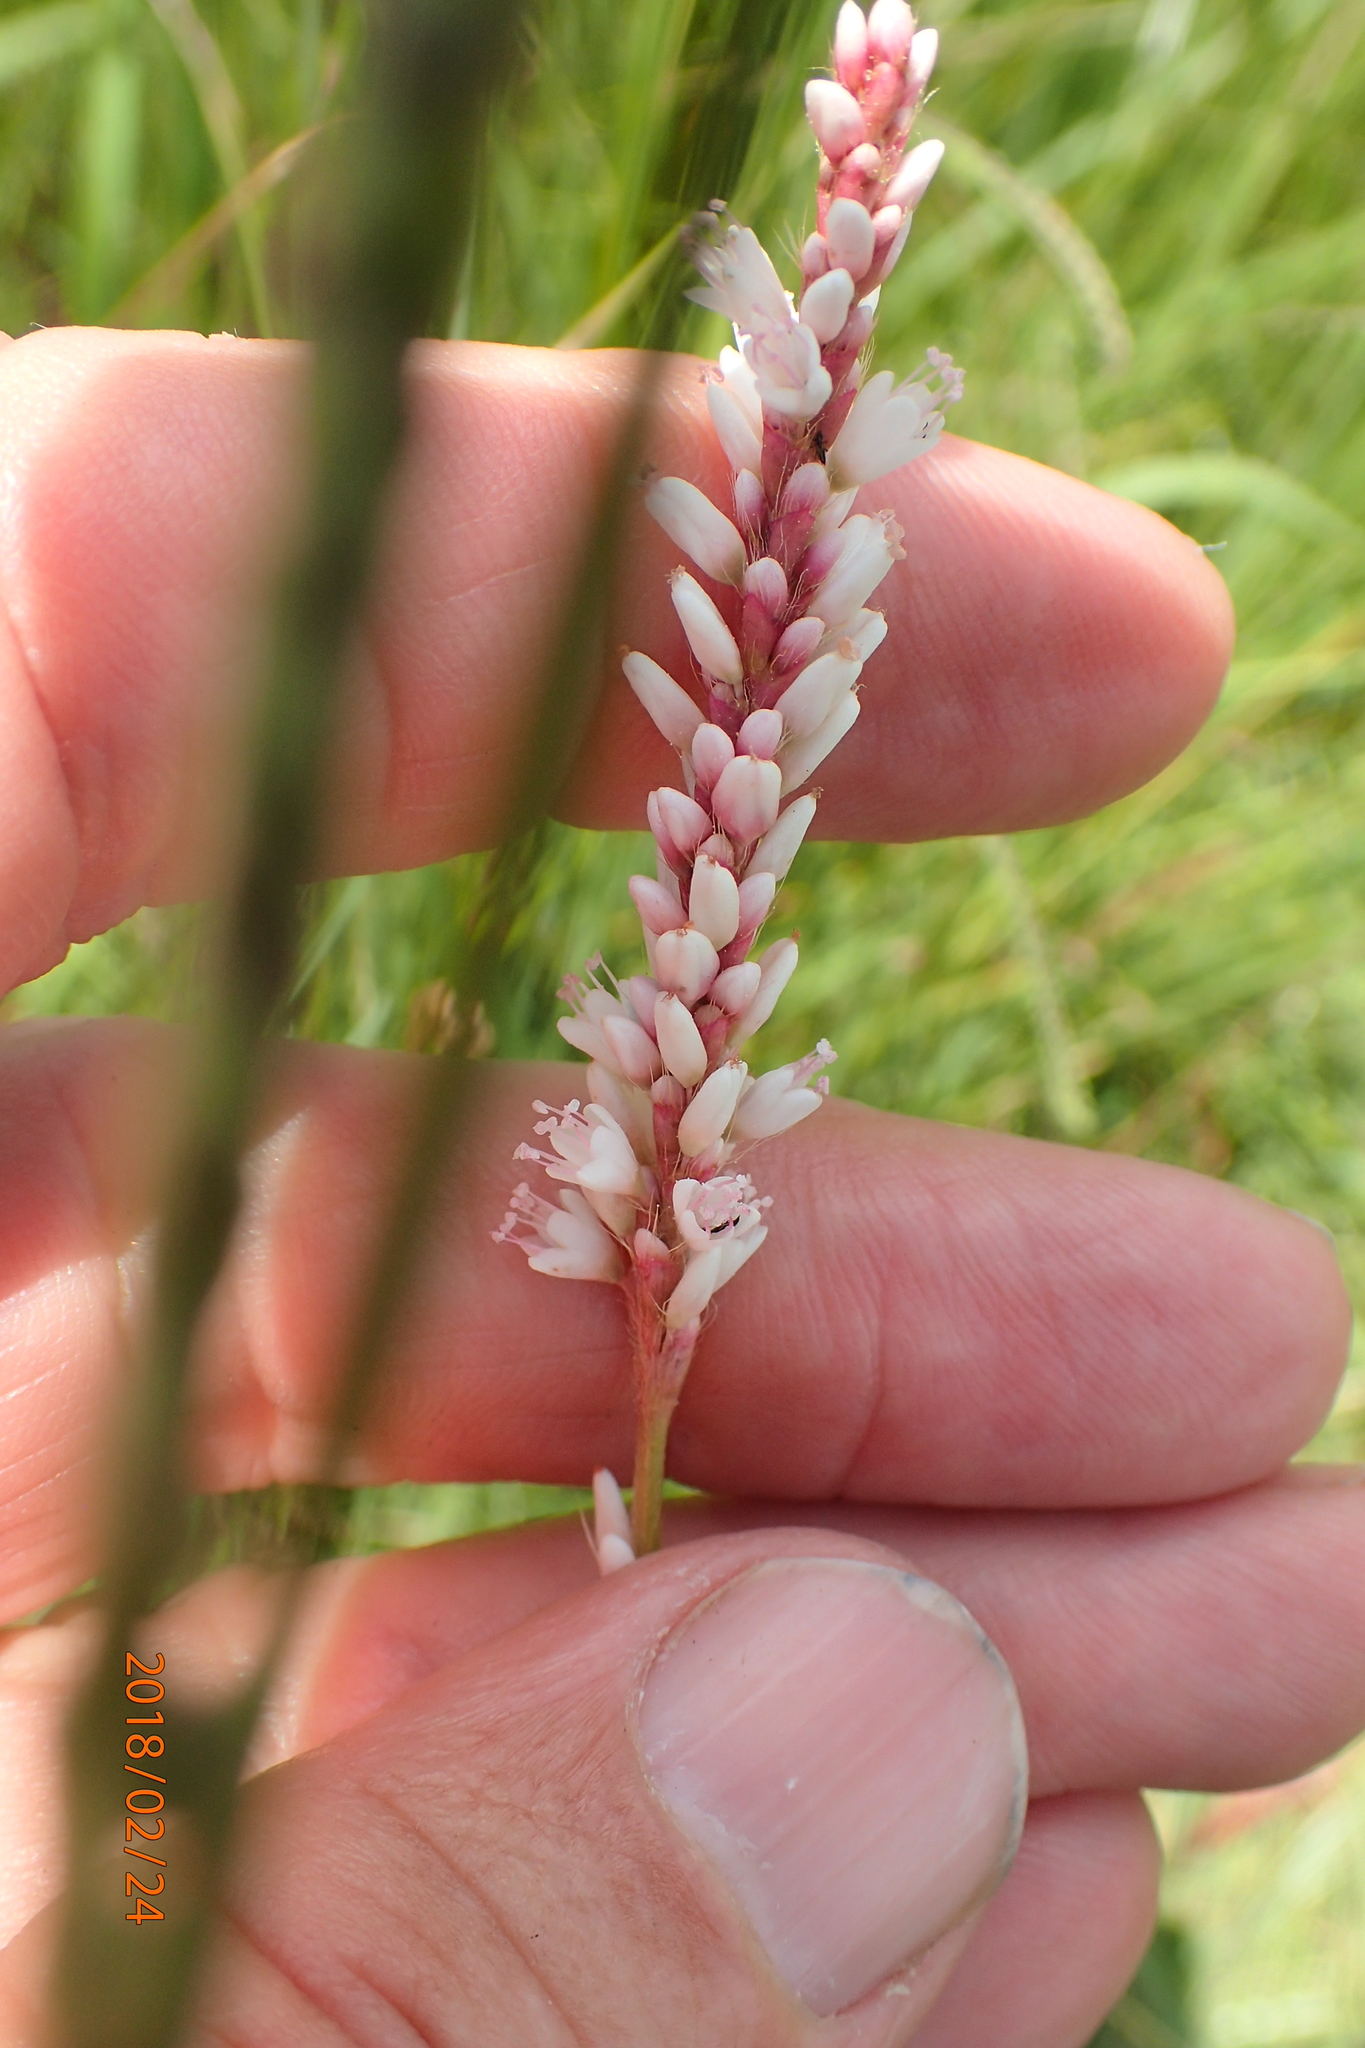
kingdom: Plantae
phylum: Tracheophyta
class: Magnoliopsida
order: Caryophyllales
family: Polygonaceae
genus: Persicaria
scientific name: Persicaria madagascariensis
